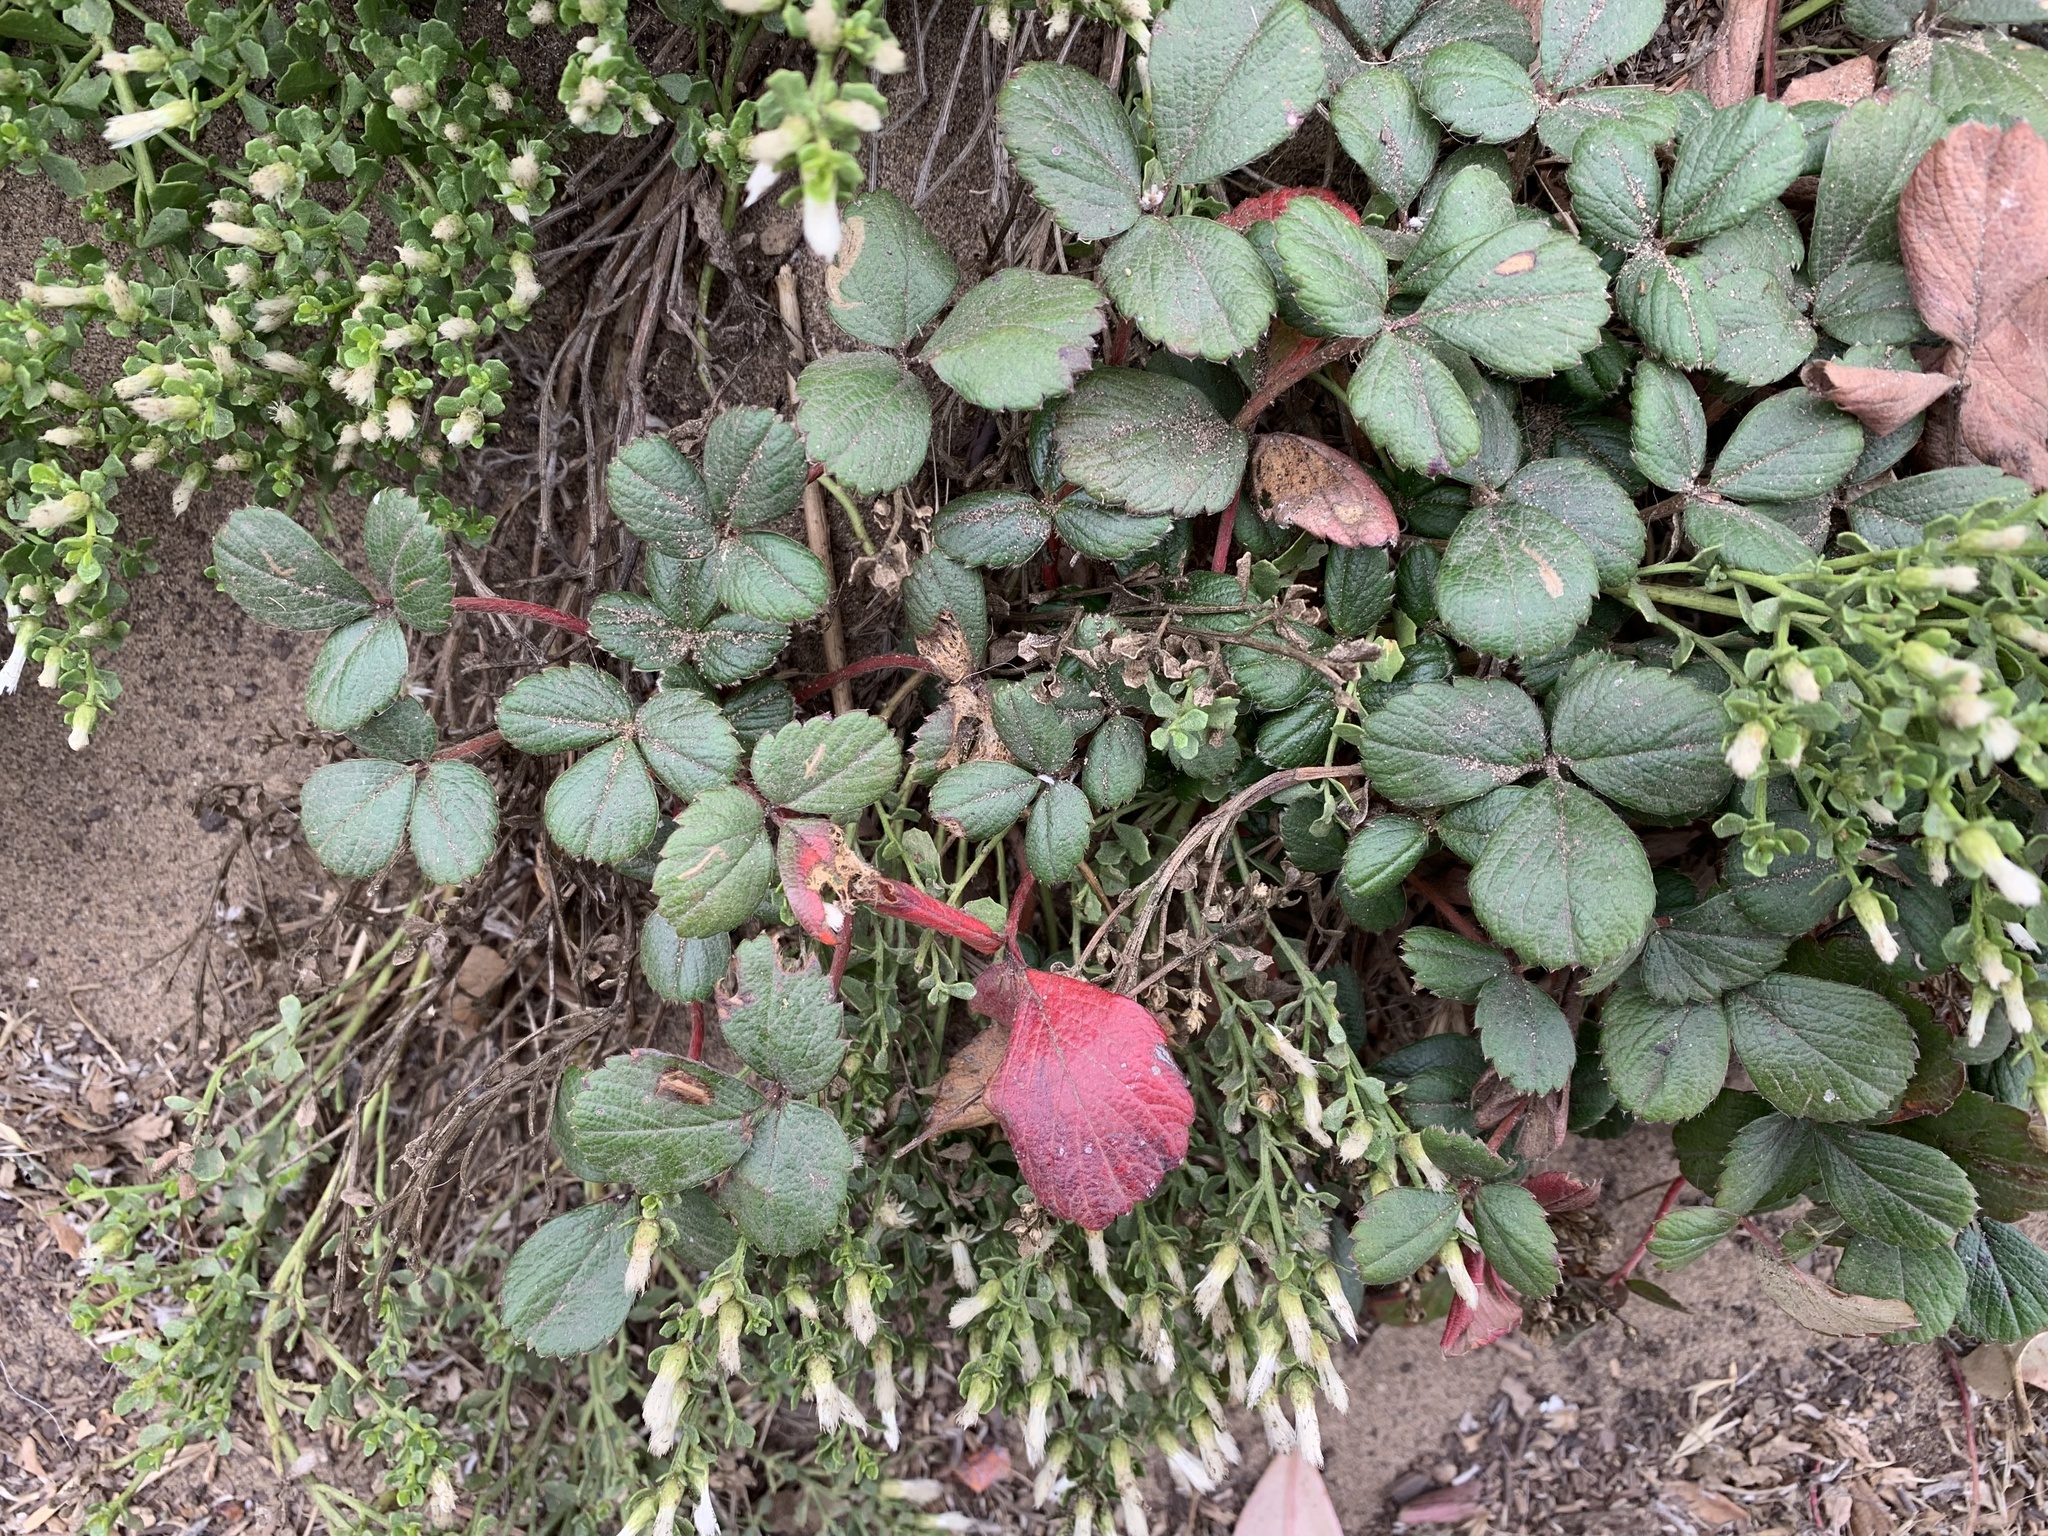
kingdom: Plantae
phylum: Tracheophyta
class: Magnoliopsida
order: Rosales
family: Rosaceae
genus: Fragaria
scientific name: Fragaria chiloensis
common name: Beach strawberry
